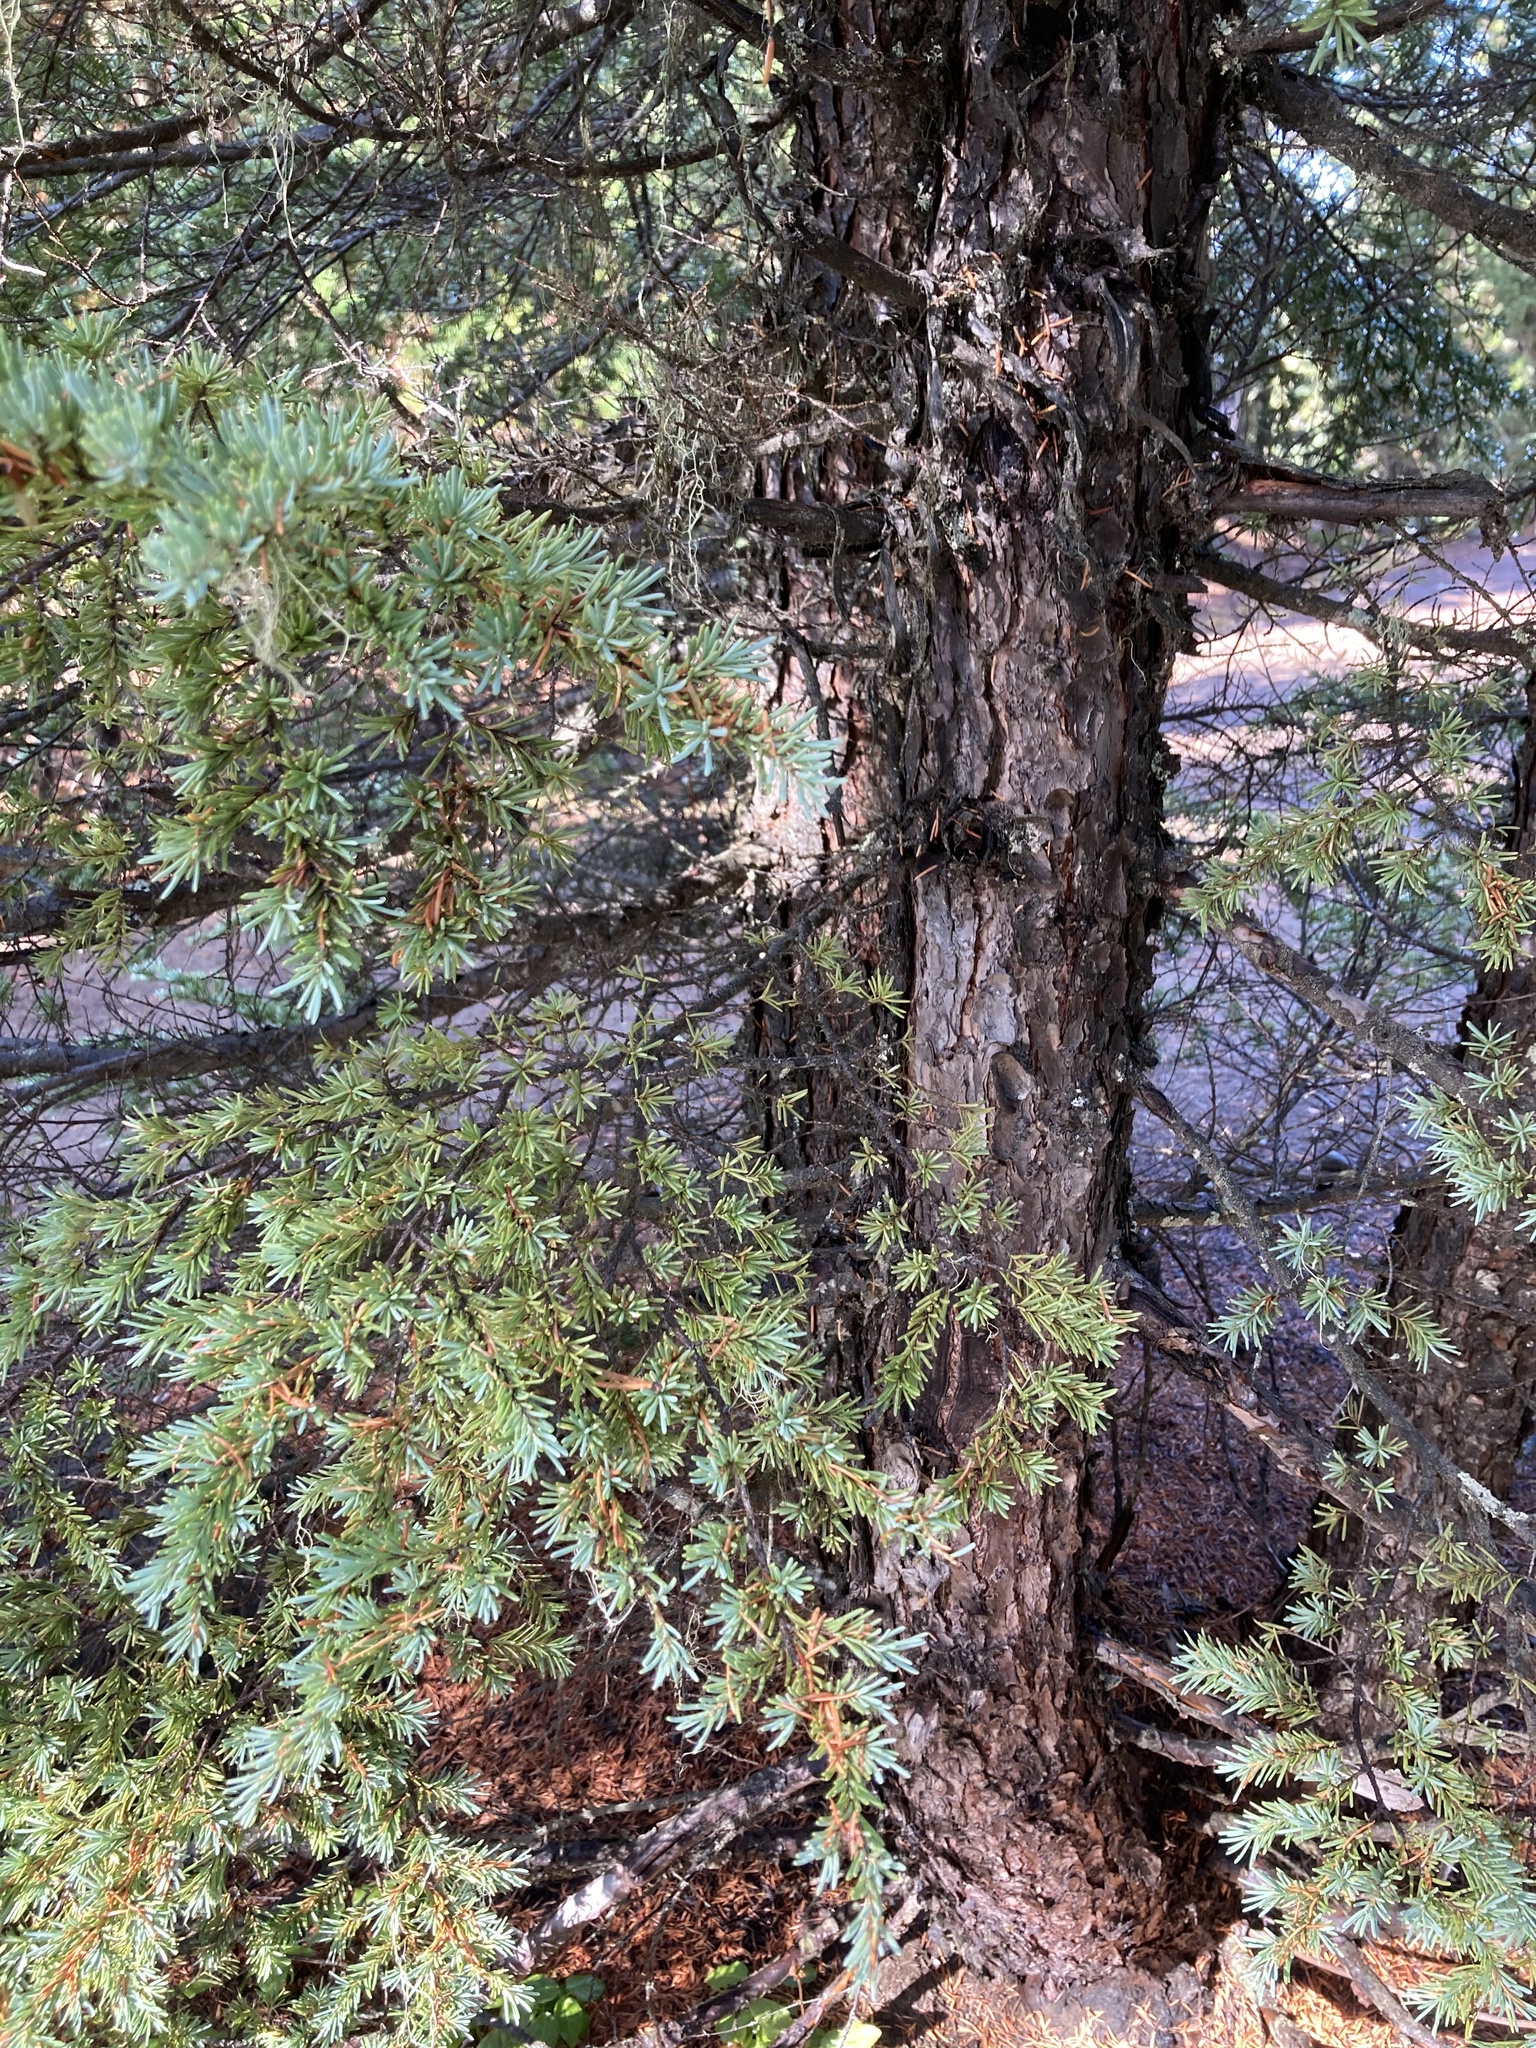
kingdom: Plantae
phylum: Tracheophyta
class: Pinopsida
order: Pinales
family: Pinaceae
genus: Tsuga
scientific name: Tsuga mertensiana
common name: Mountain hemlock
